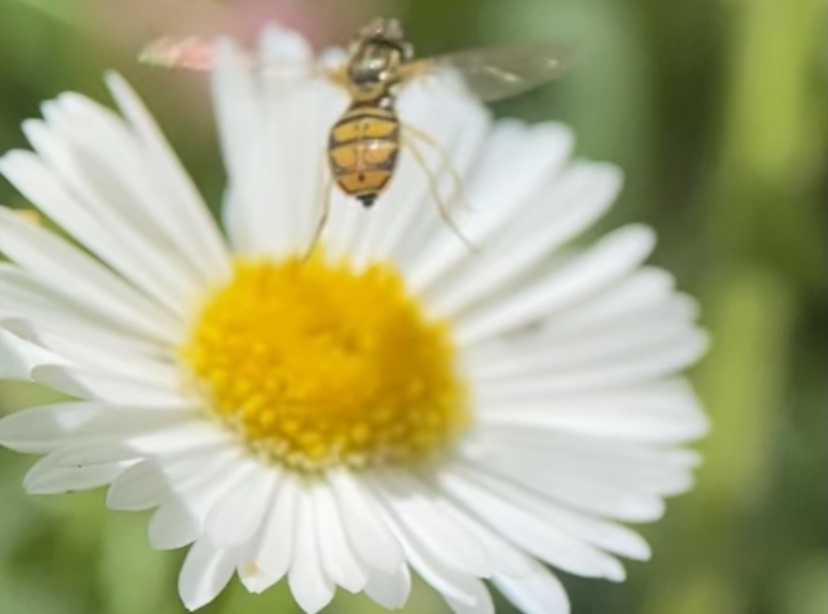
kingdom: Animalia
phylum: Arthropoda
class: Insecta
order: Diptera
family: Syrphidae
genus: Toxomerus
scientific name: Toxomerus marginatus
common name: Syrphid fly
